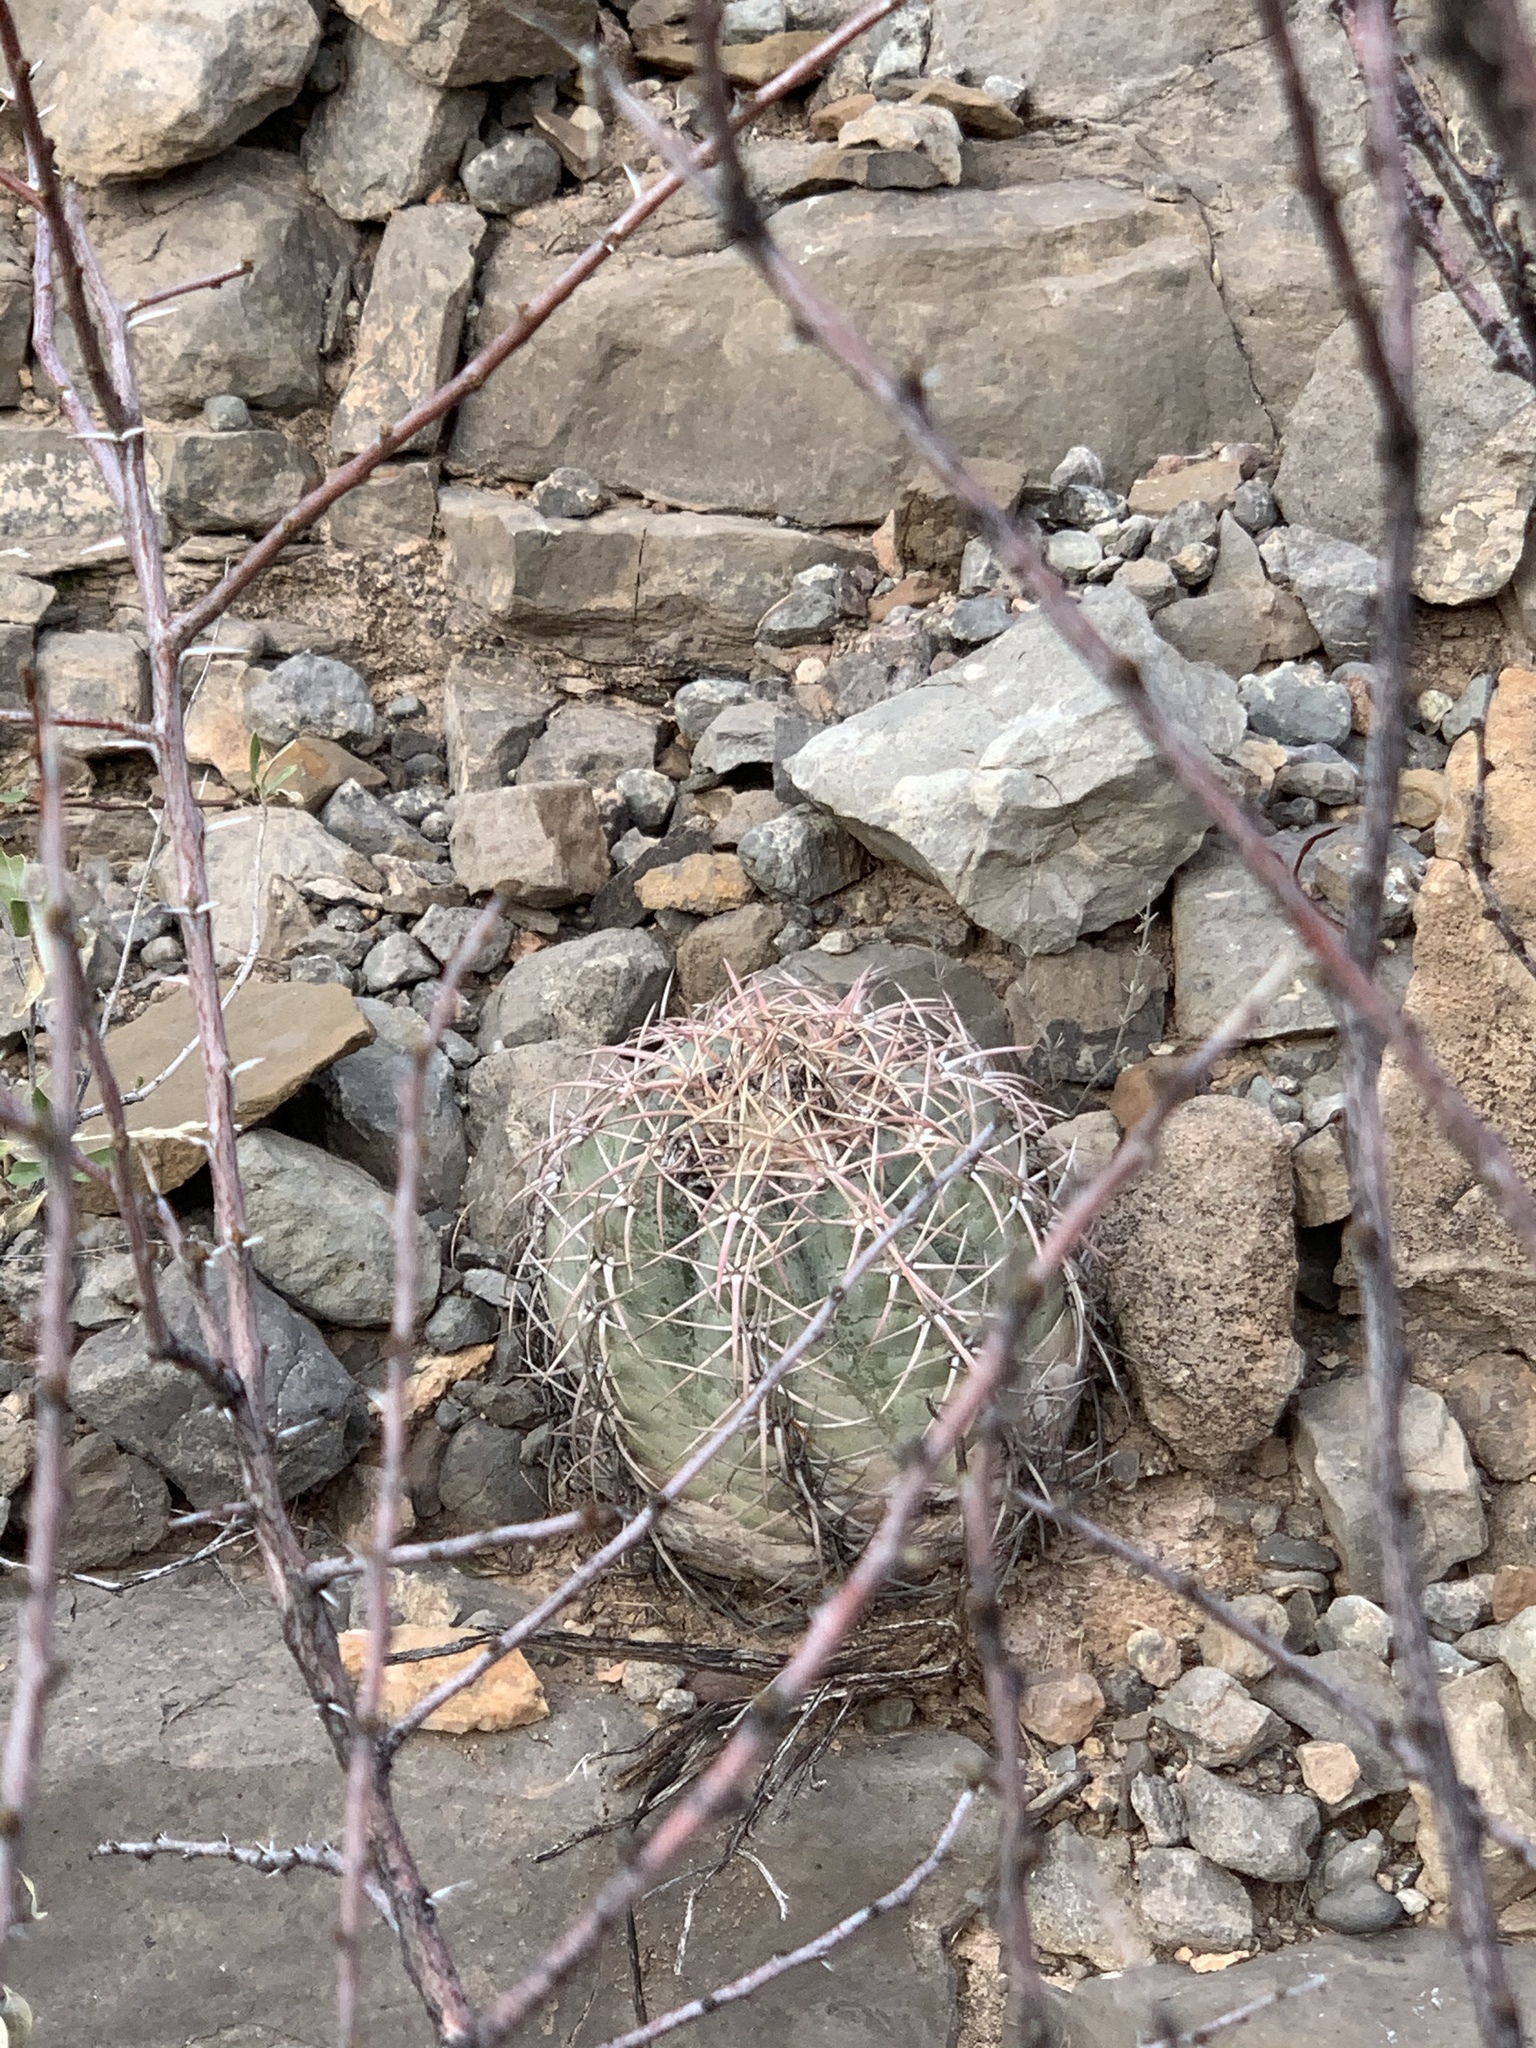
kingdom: Plantae
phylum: Tracheophyta
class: Magnoliopsida
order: Caryophyllales
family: Cactaceae
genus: Echinocactus
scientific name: Echinocactus horizonthalonius
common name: Devilshead
